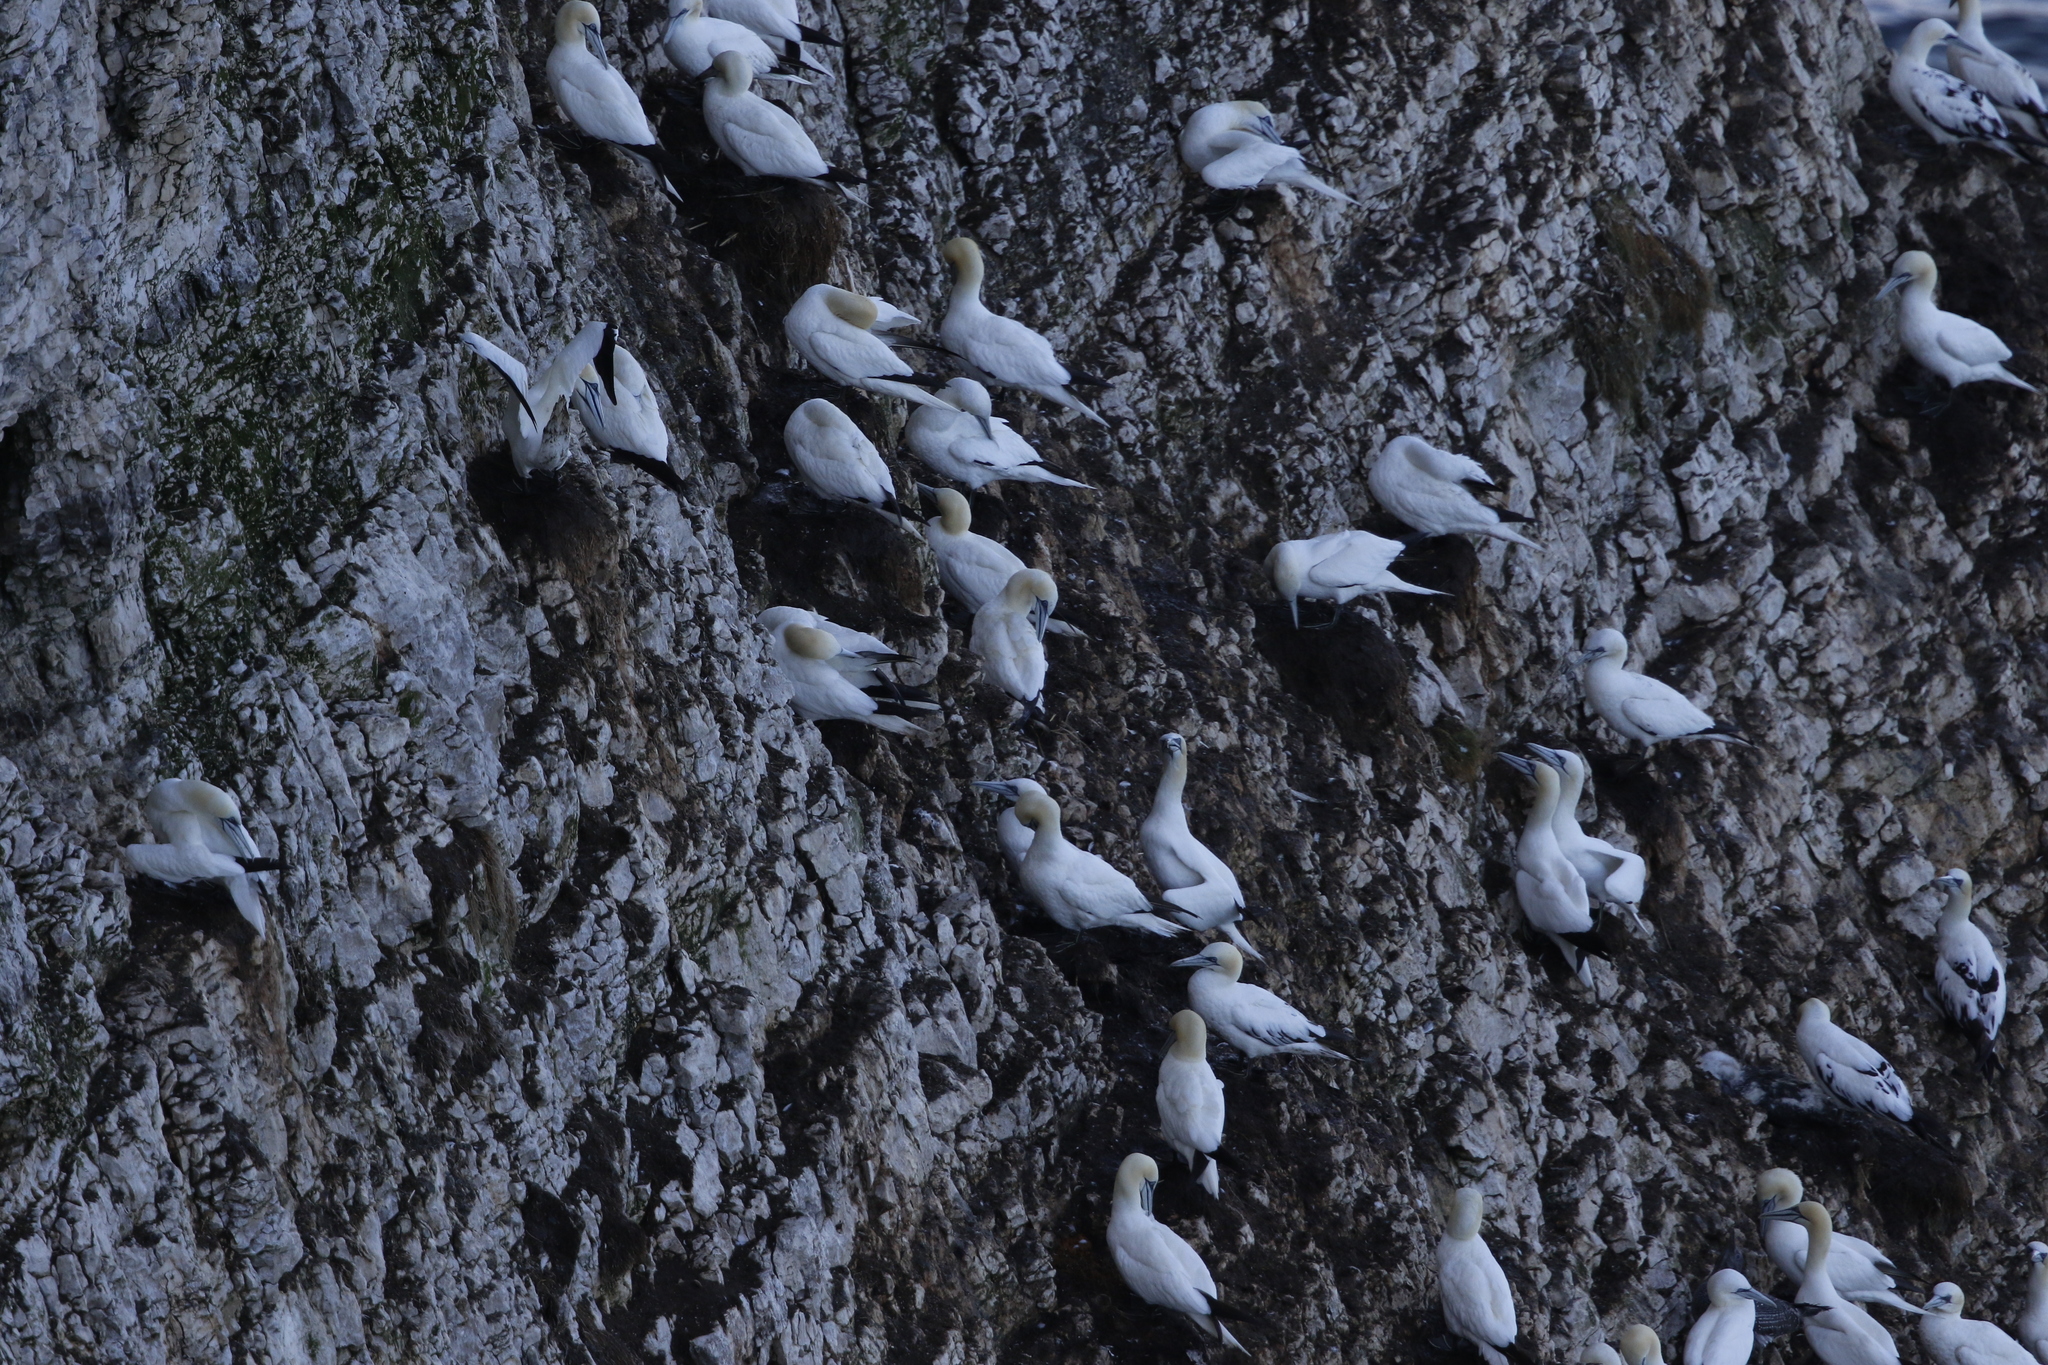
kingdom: Animalia
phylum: Chordata
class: Aves
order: Suliformes
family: Sulidae
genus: Morus
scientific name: Morus bassanus
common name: Northern gannet
